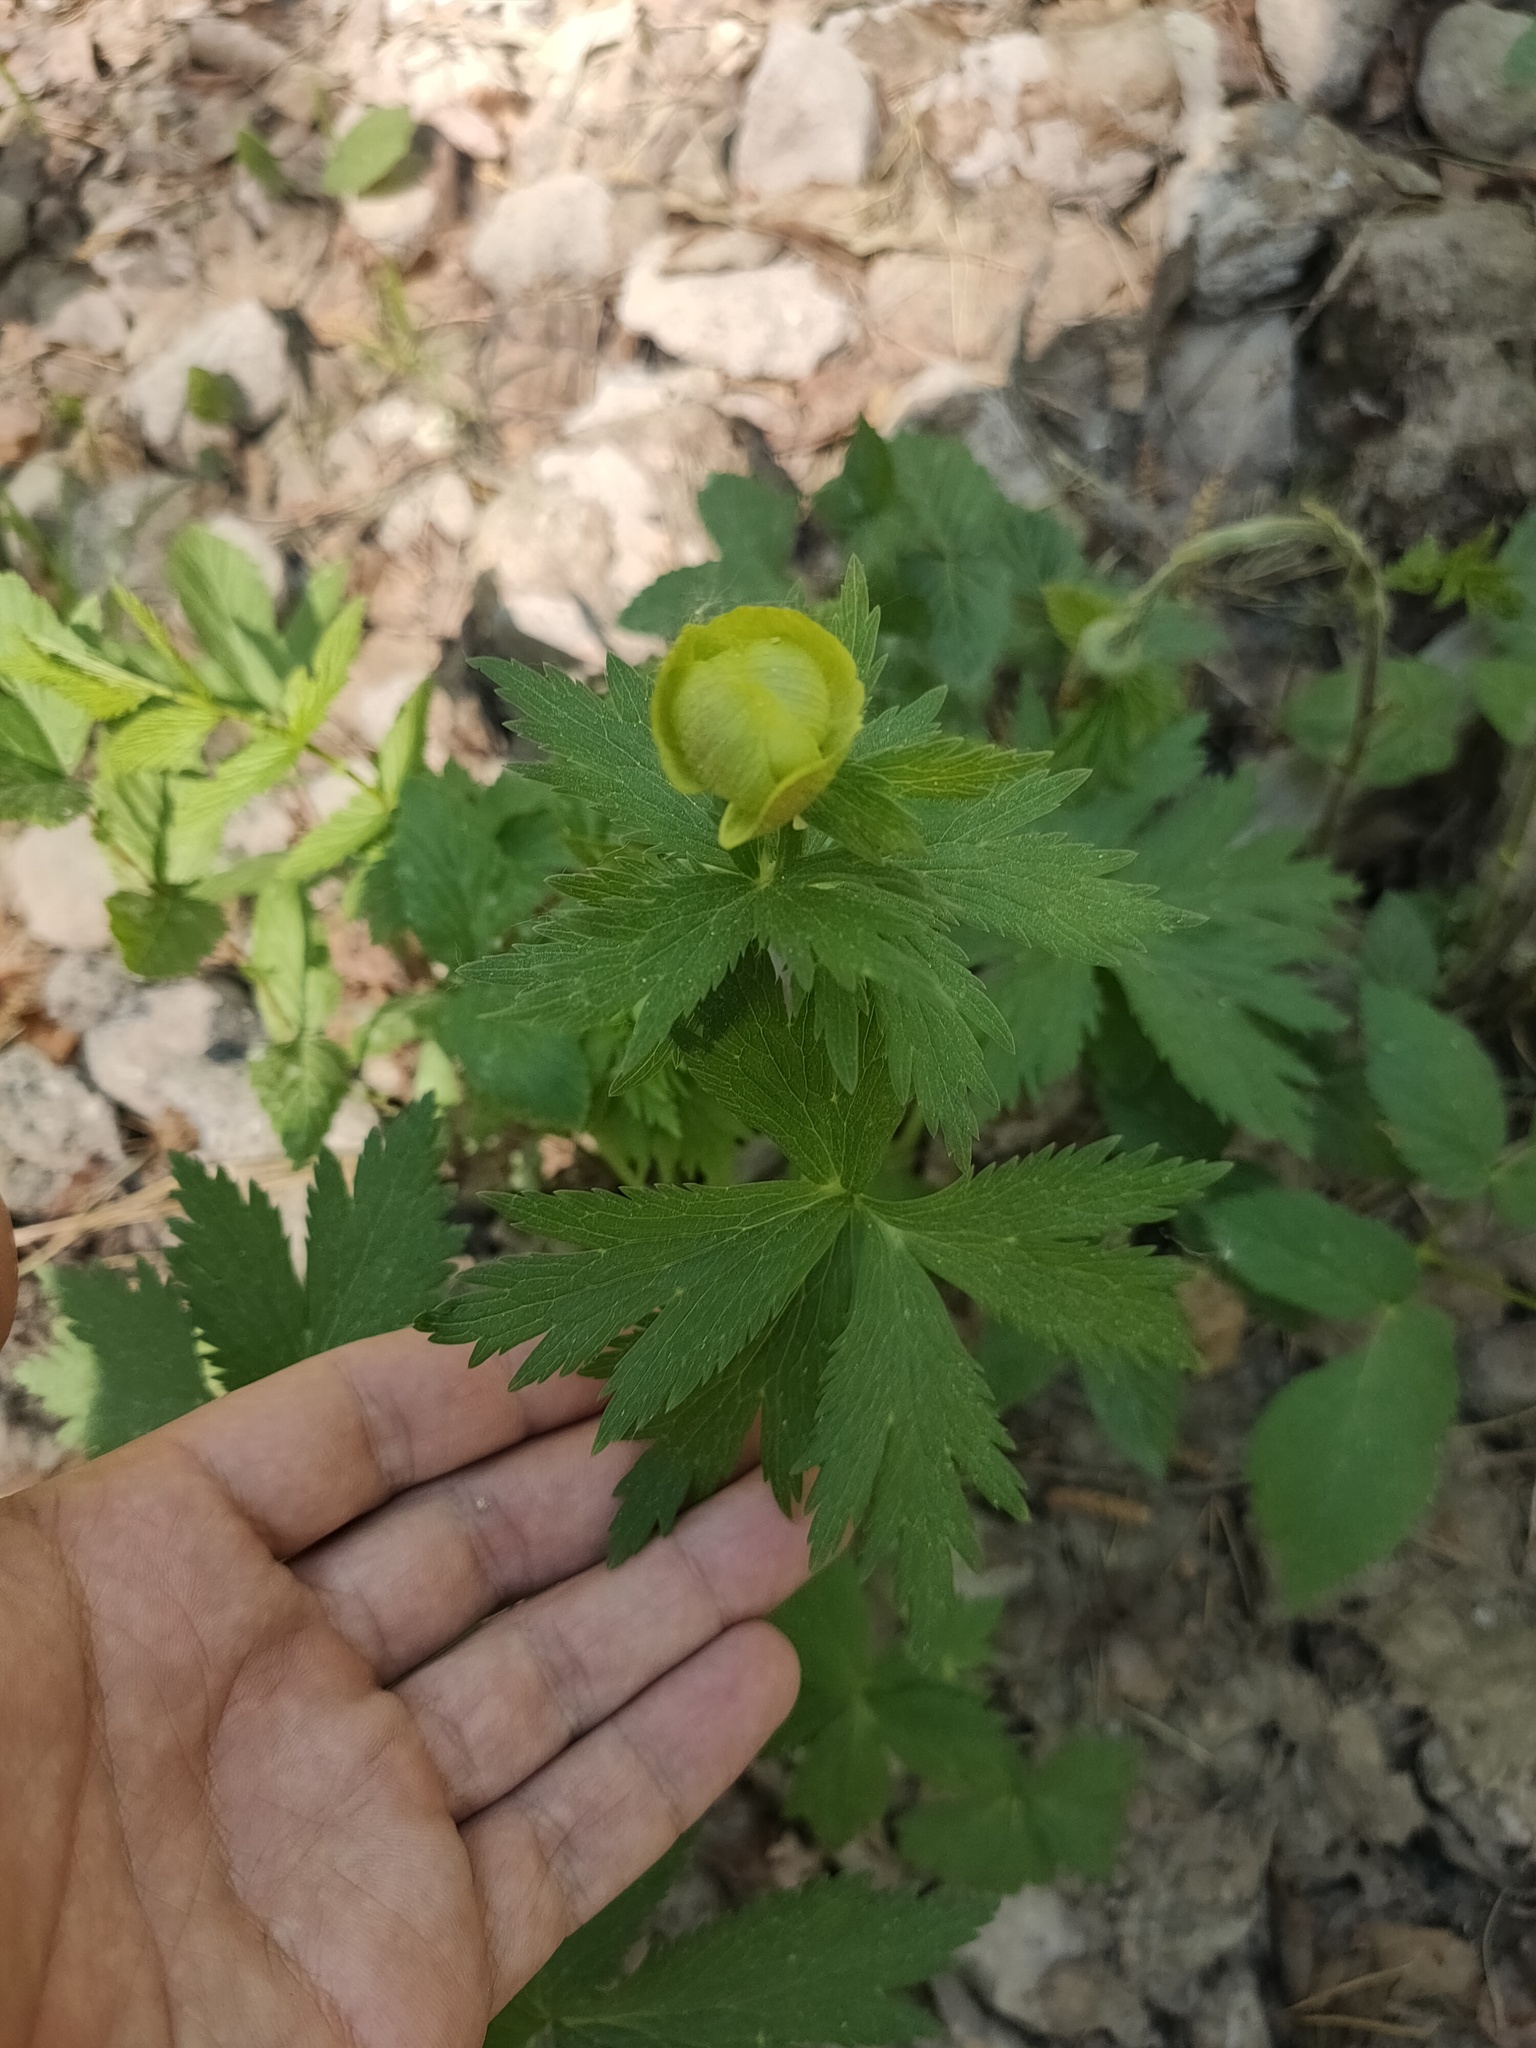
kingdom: Plantae
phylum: Tracheophyta
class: Magnoliopsida
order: Ranunculales
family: Ranunculaceae
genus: Trollius
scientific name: Trollius europaeus
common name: European globeflower
